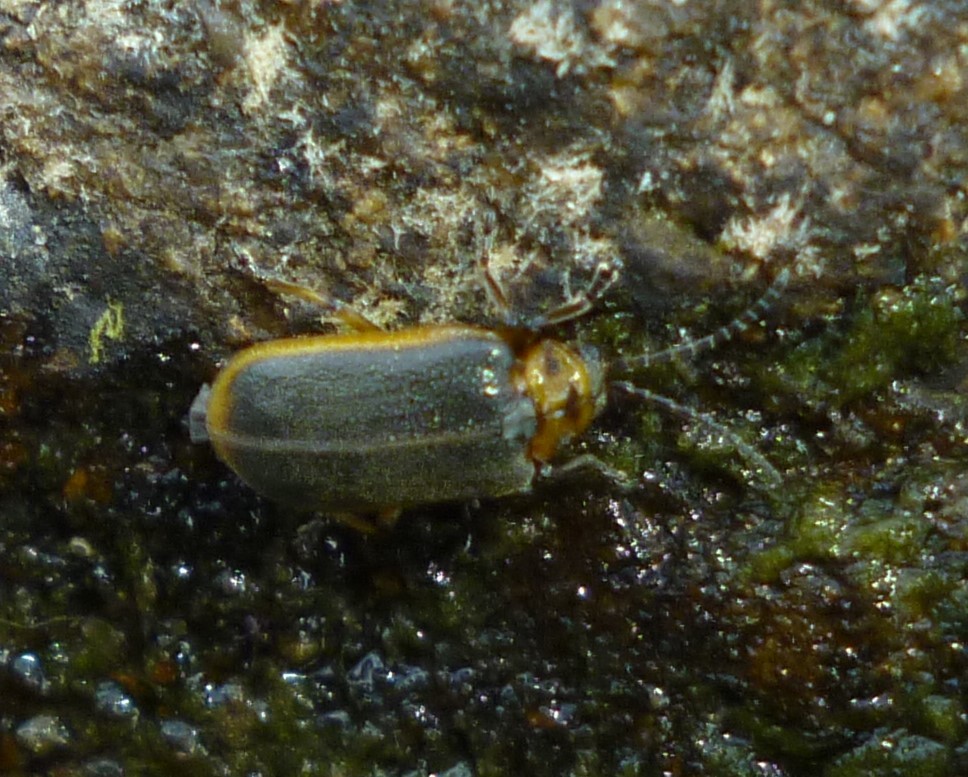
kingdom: Animalia
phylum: Arthropoda
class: Insecta
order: Coleoptera
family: Chrysomelidae
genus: Galerucella
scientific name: Galerucella nymphaeae
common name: Leaf beetle
